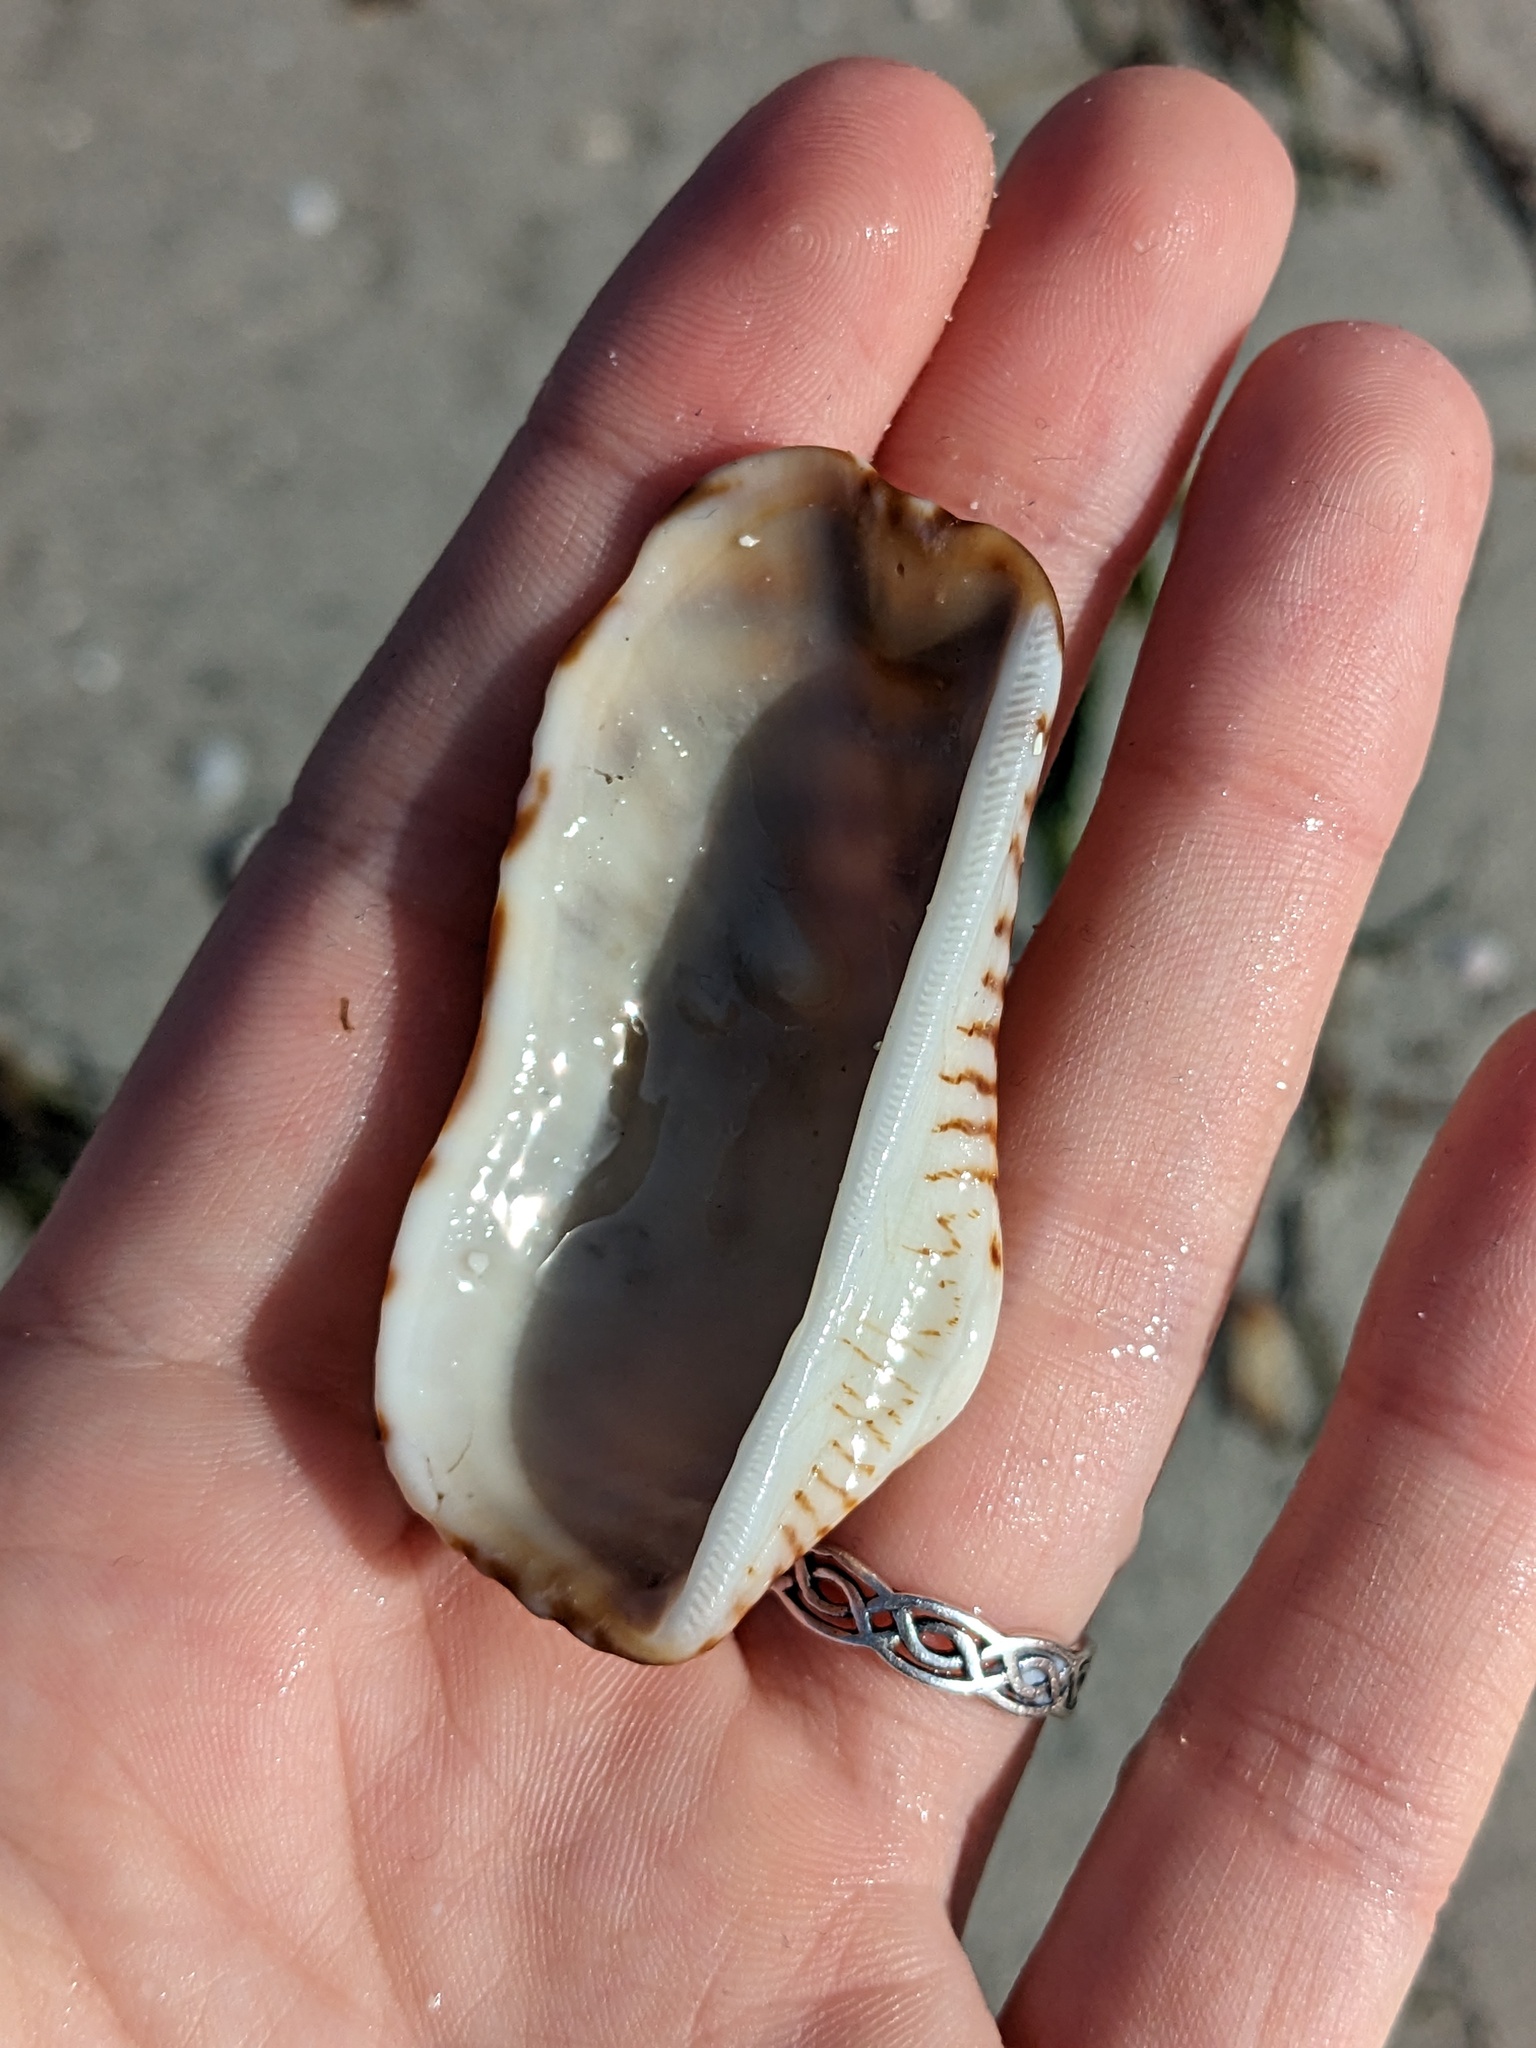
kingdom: Animalia
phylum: Mollusca
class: Bivalvia
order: Arcida
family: Arcidae
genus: Arca
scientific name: Arca zebra
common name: Atlantic turkey wing
